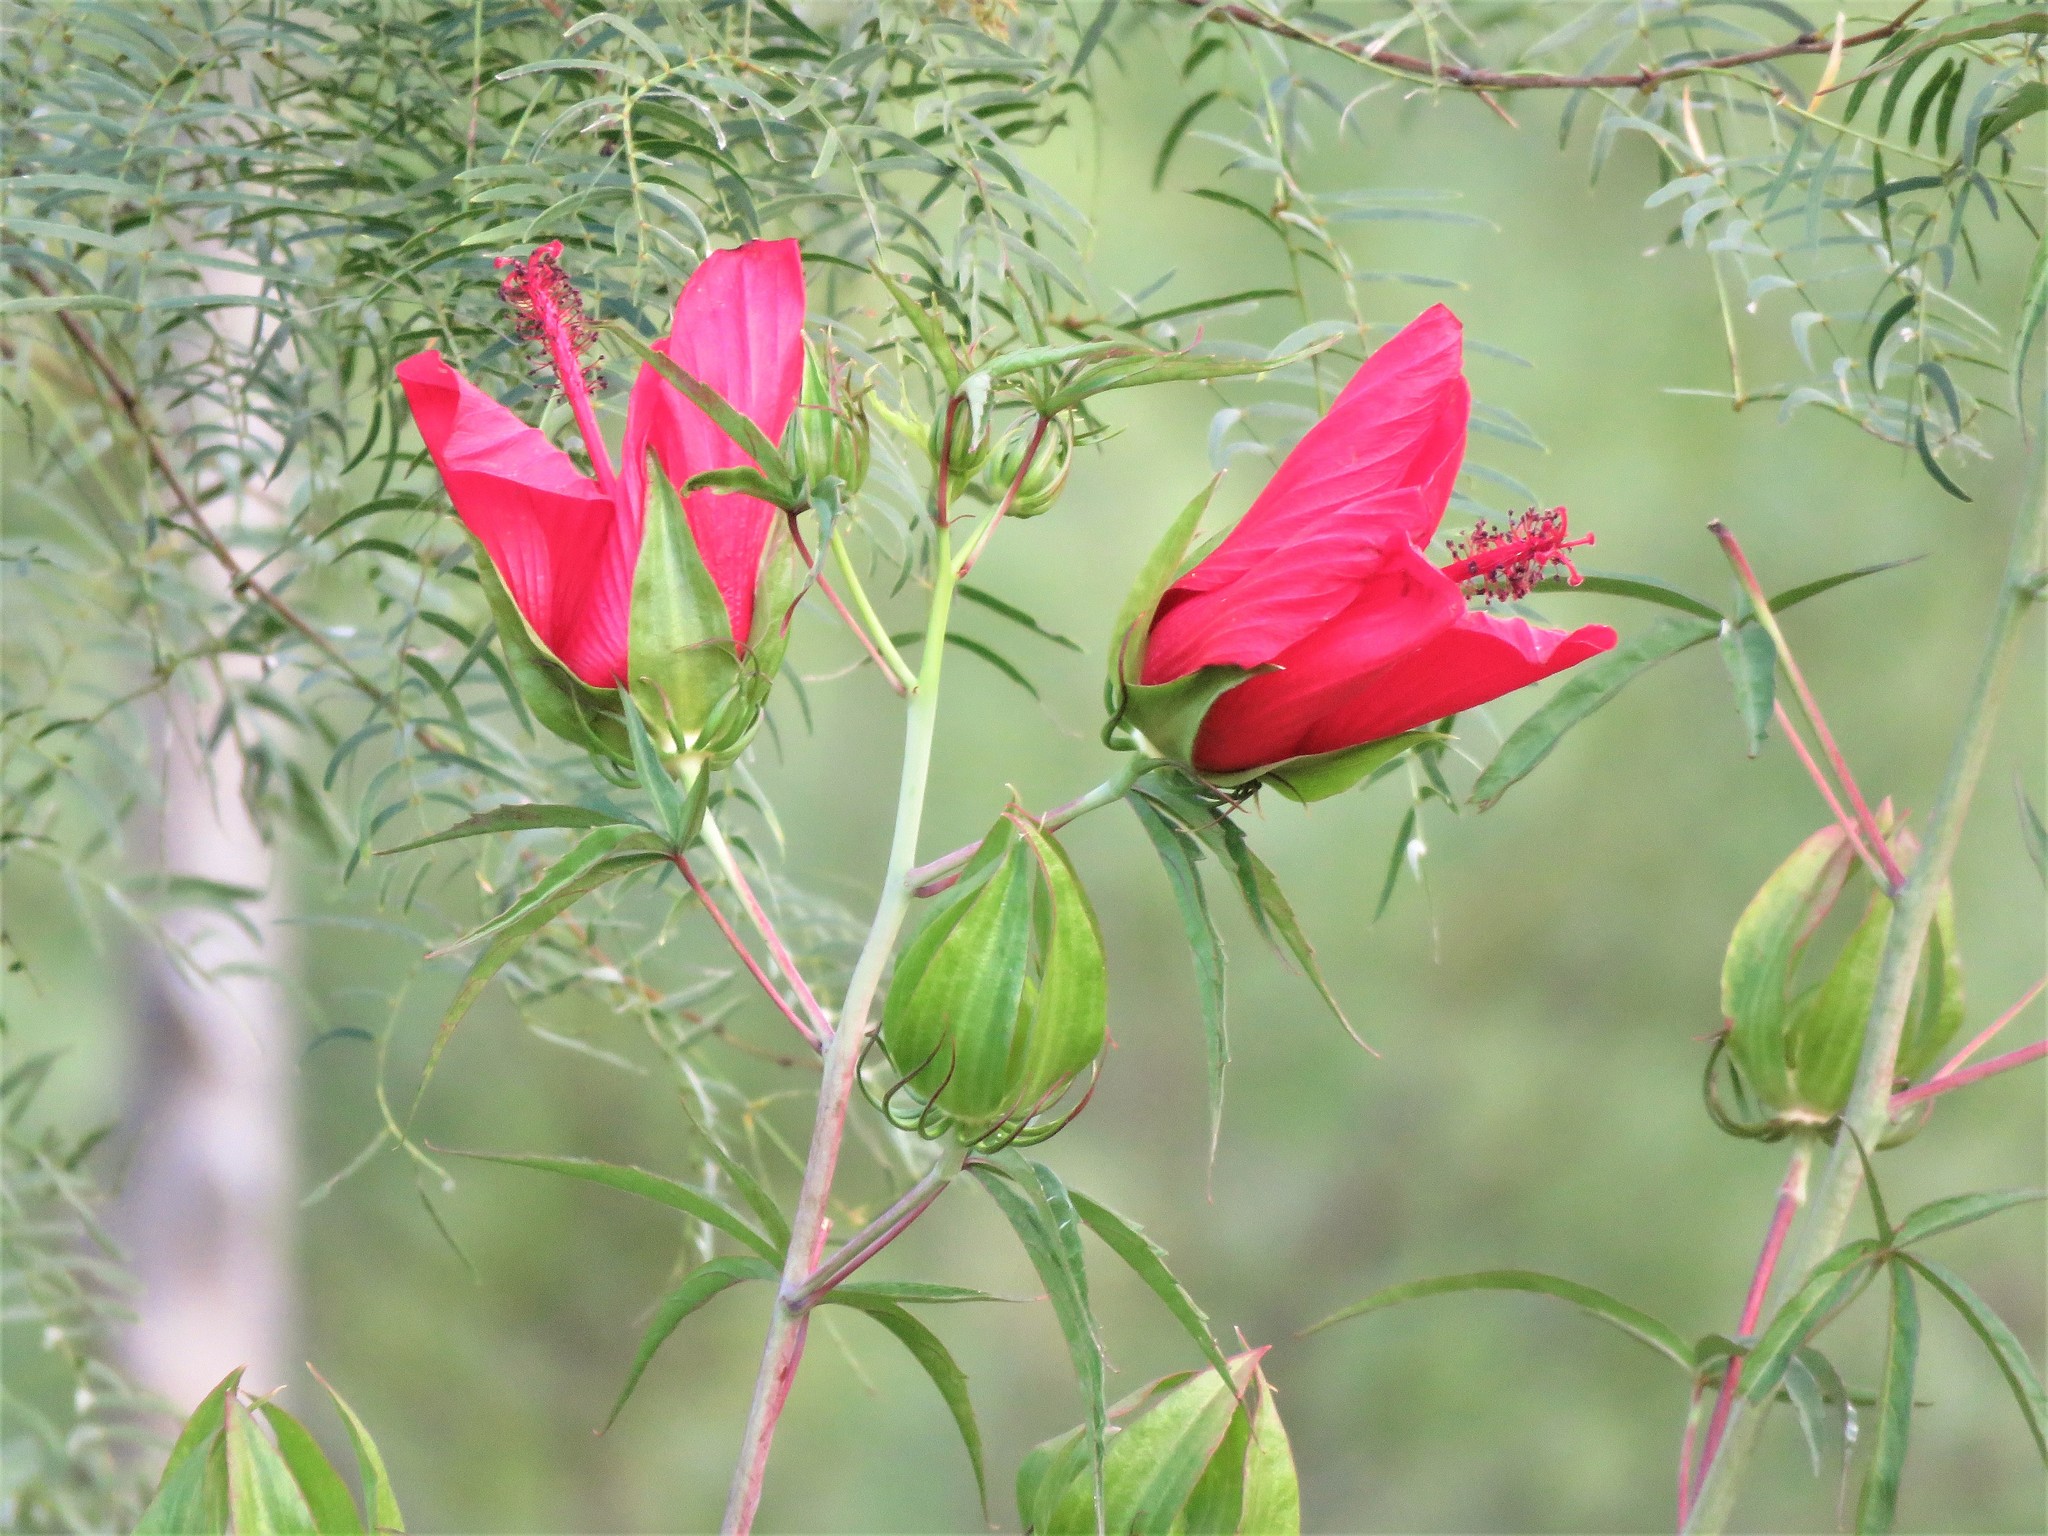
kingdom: Plantae
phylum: Tracheophyta
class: Magnoliopsida
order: Malvales
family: Malvaceae
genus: Hibiscus
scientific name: Hibiscus coccineus
